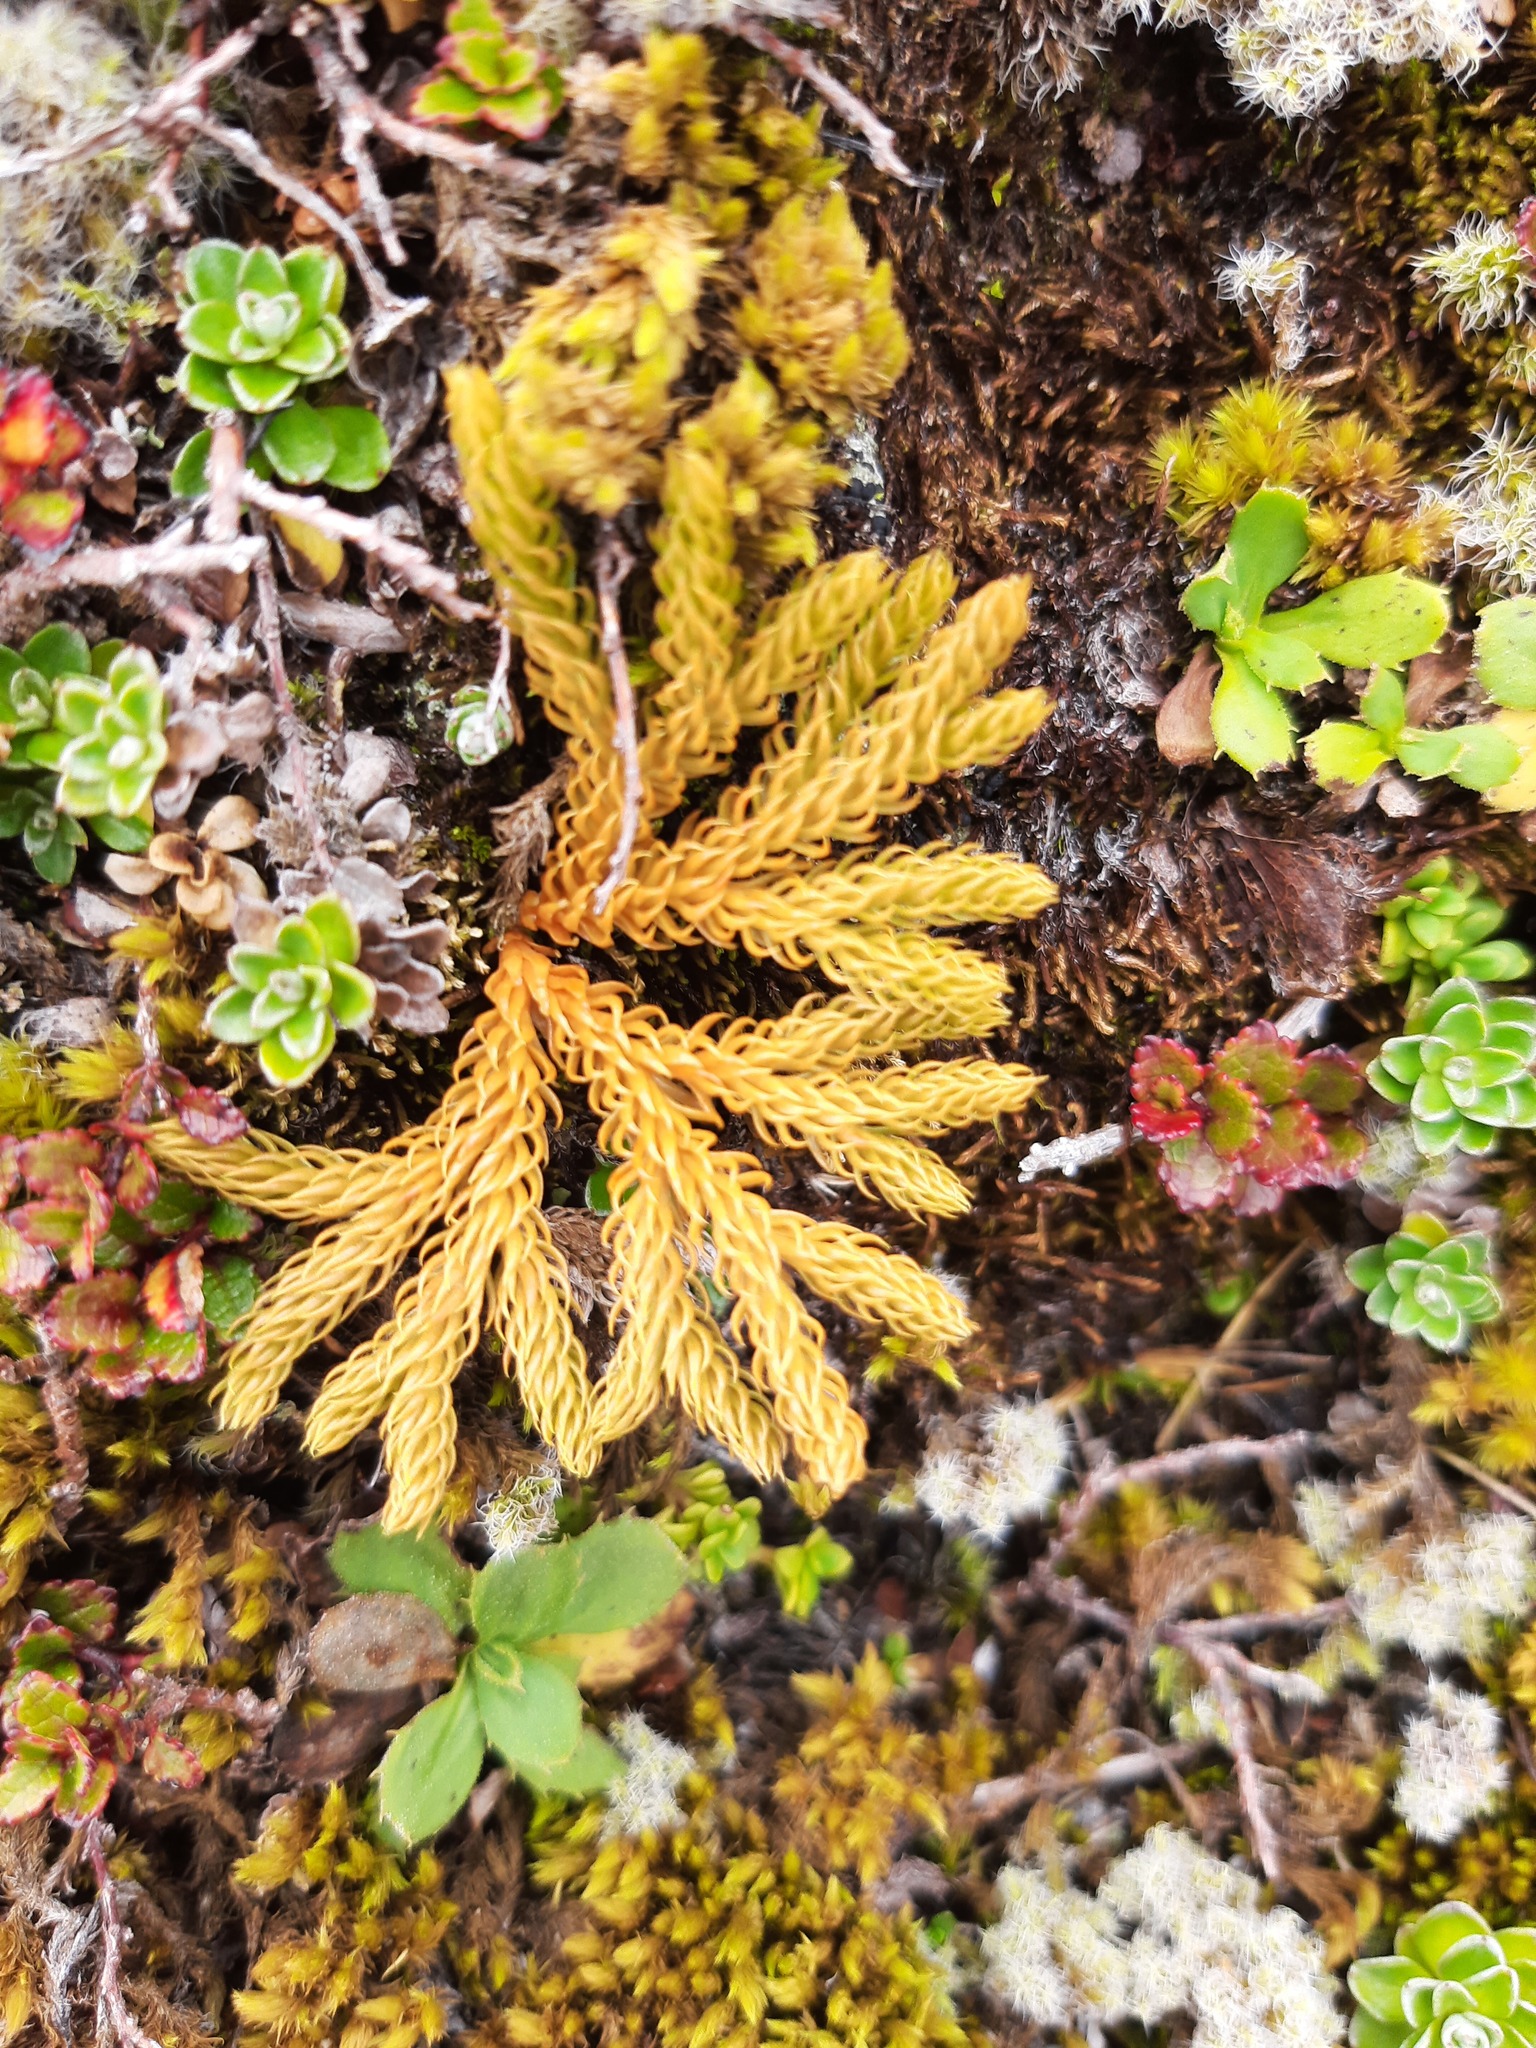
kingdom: Plantae
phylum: Tracheophyta
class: Lycopodiopsida
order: Lycopodiales
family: Lycopodiaceae
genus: Austrolycopodium
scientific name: Austrolycopodium fastigiatum
